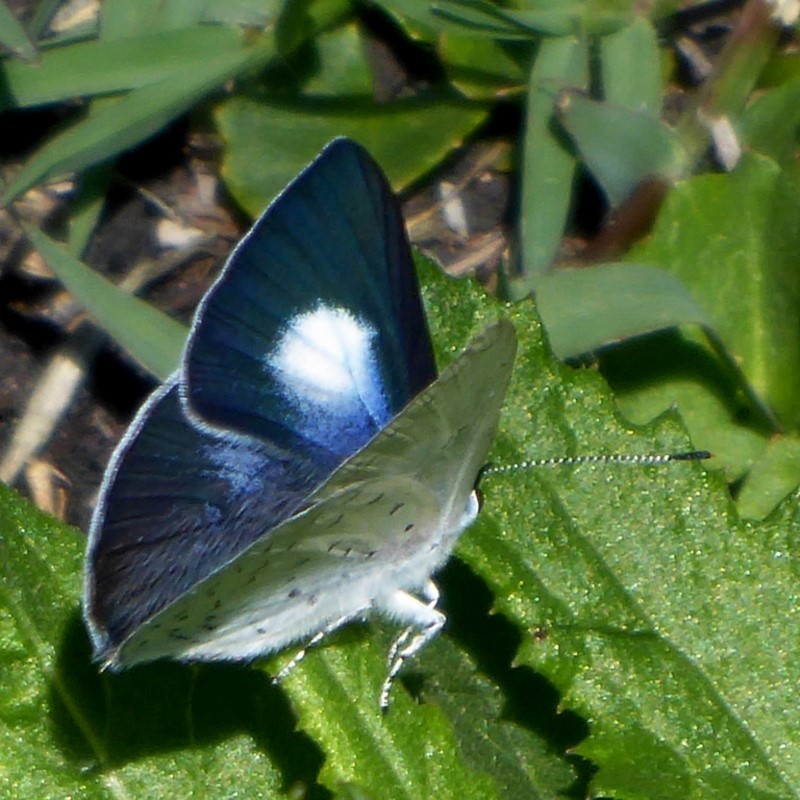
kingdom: Animalia
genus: Eirmocides
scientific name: Eirmocides
